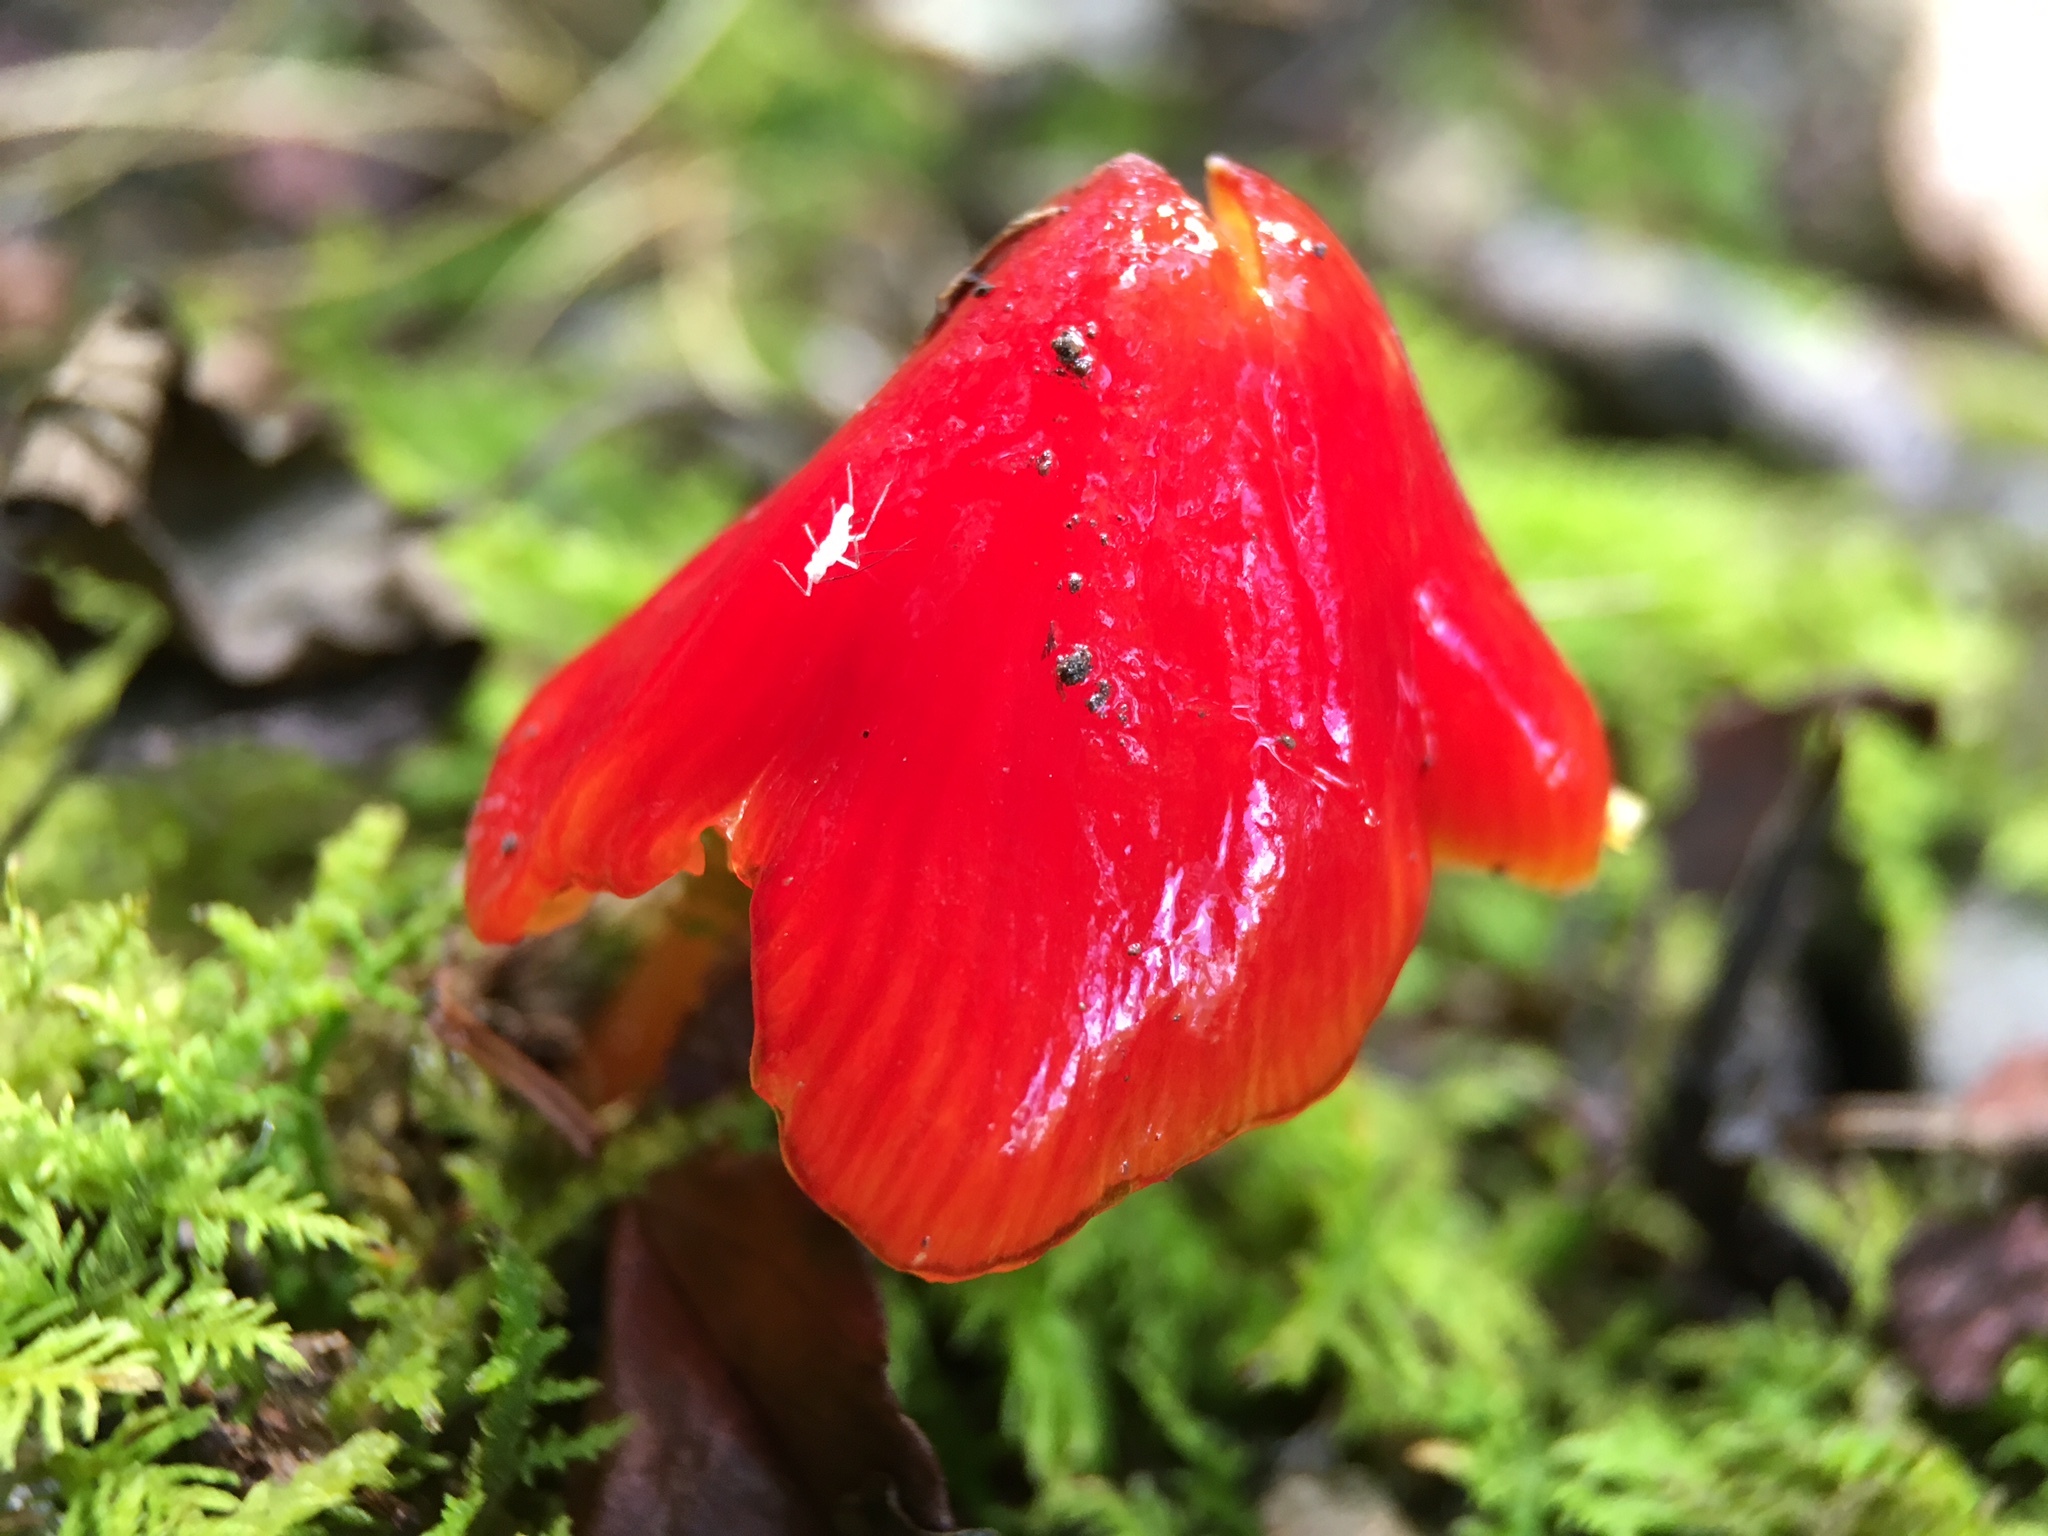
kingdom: Fungi
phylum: Basidiomycota
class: Agaricomycetes
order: Agaricales
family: Hygrophoraceae
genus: Hygrocybe
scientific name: Hygrocybe cuspidata
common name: Candy apple waxy cap
